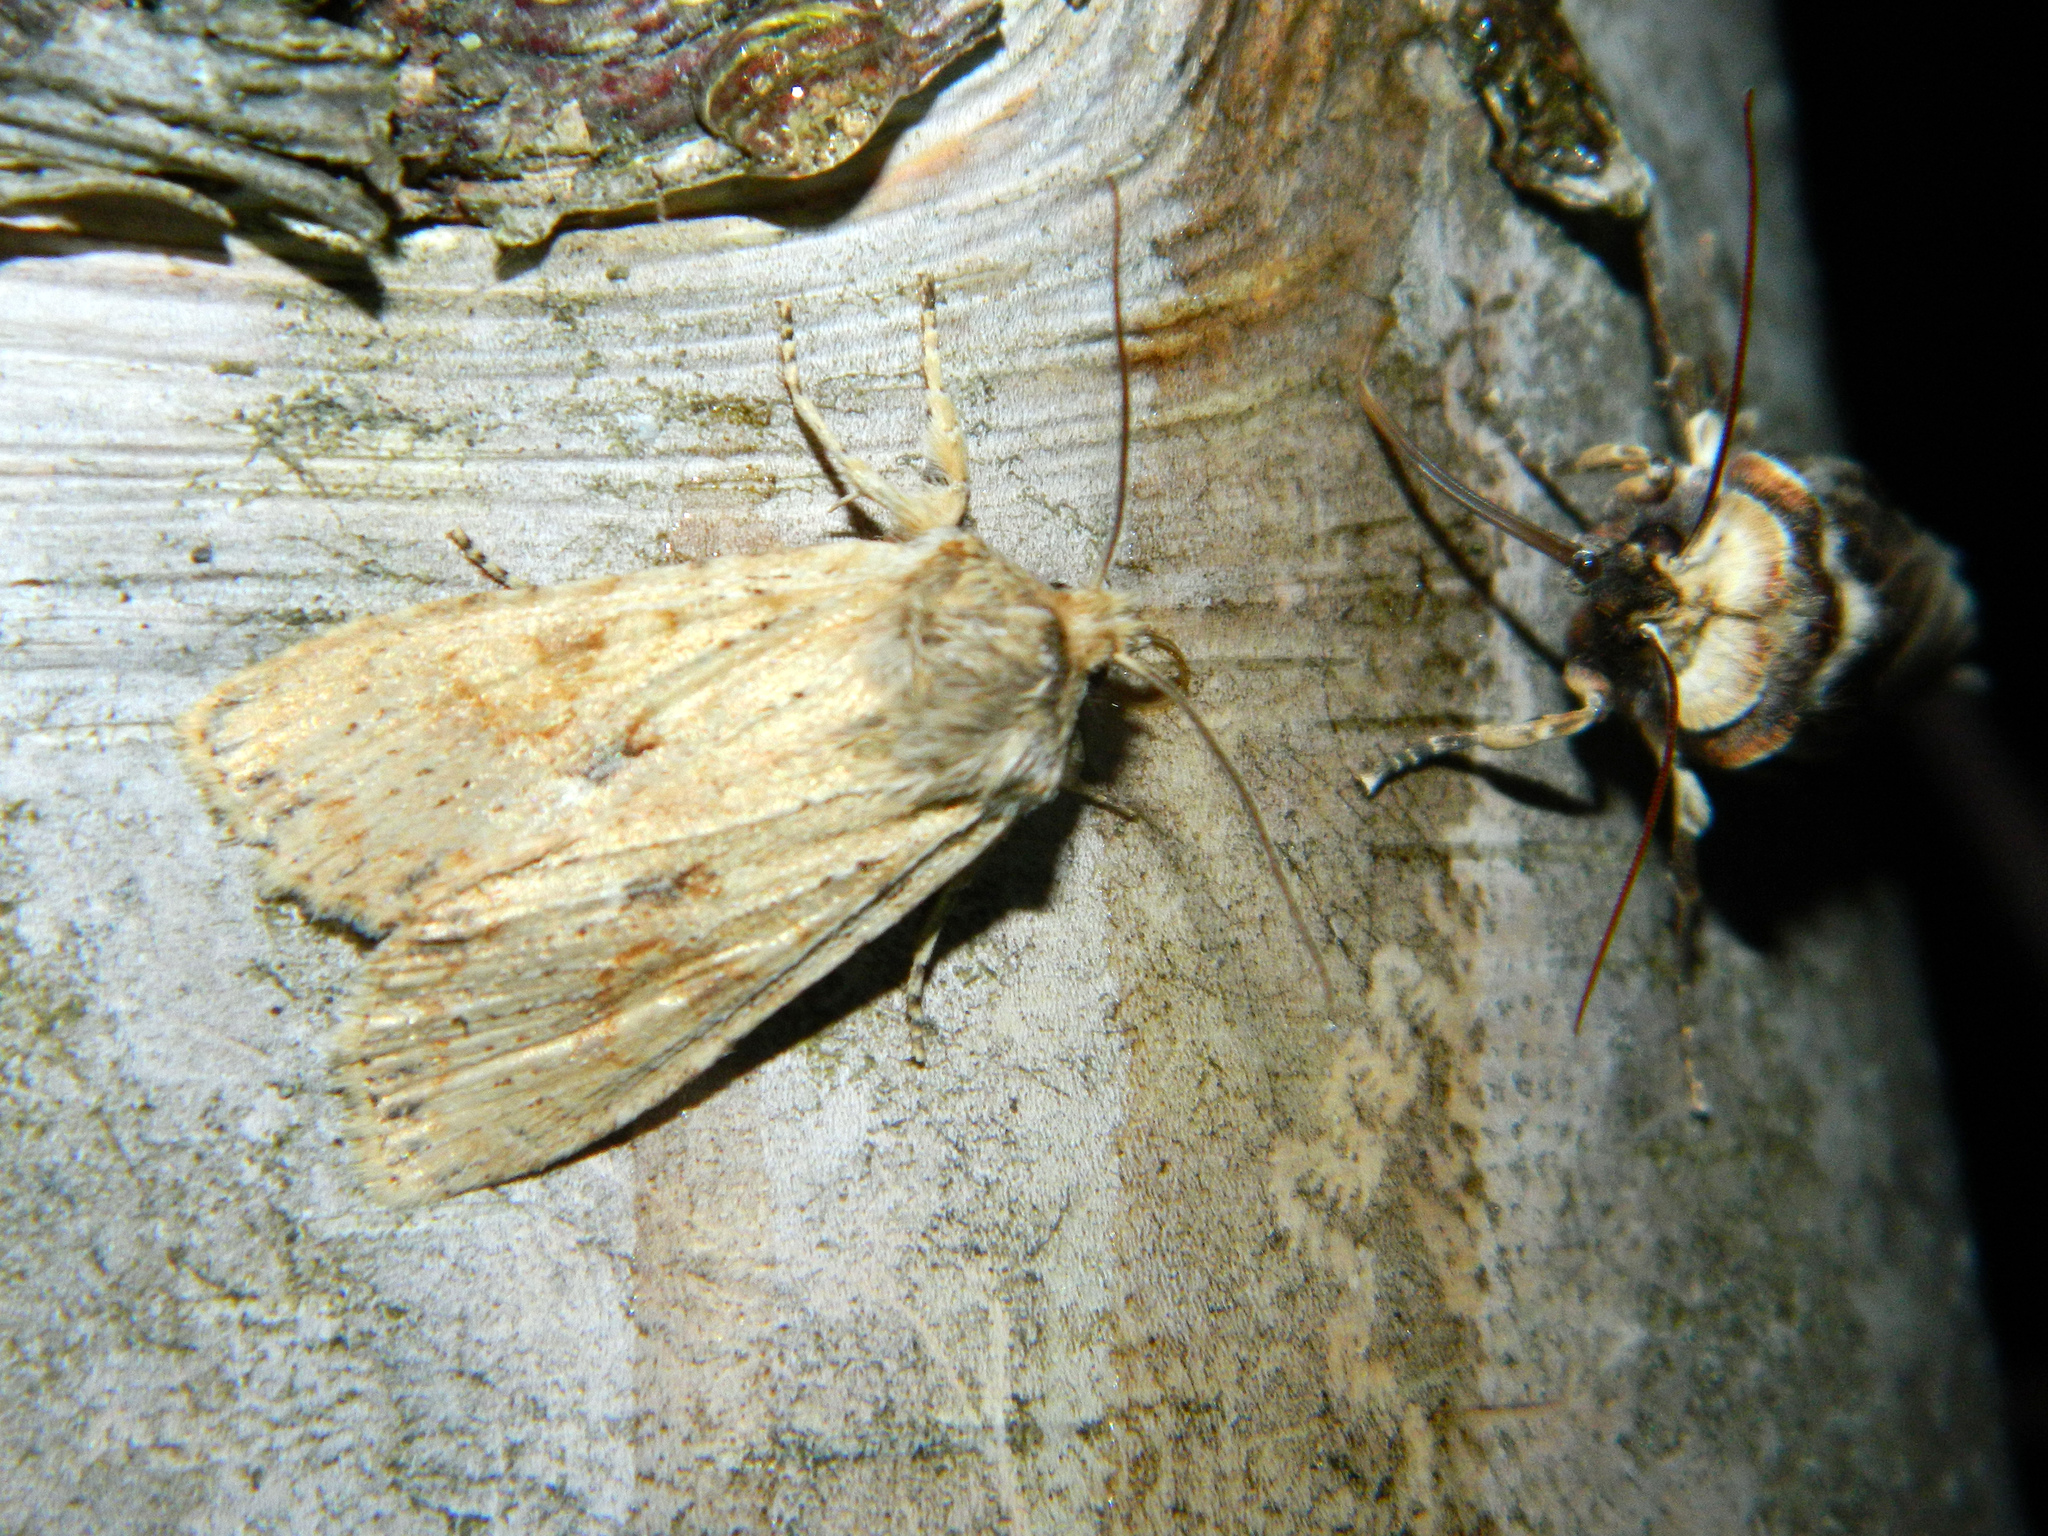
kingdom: Animalia
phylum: Arthropoda
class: Insecta
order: Lepidoptera
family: Noctuidae
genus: Lithophane
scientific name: Lithophane innominata
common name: Nameless pinion moth
